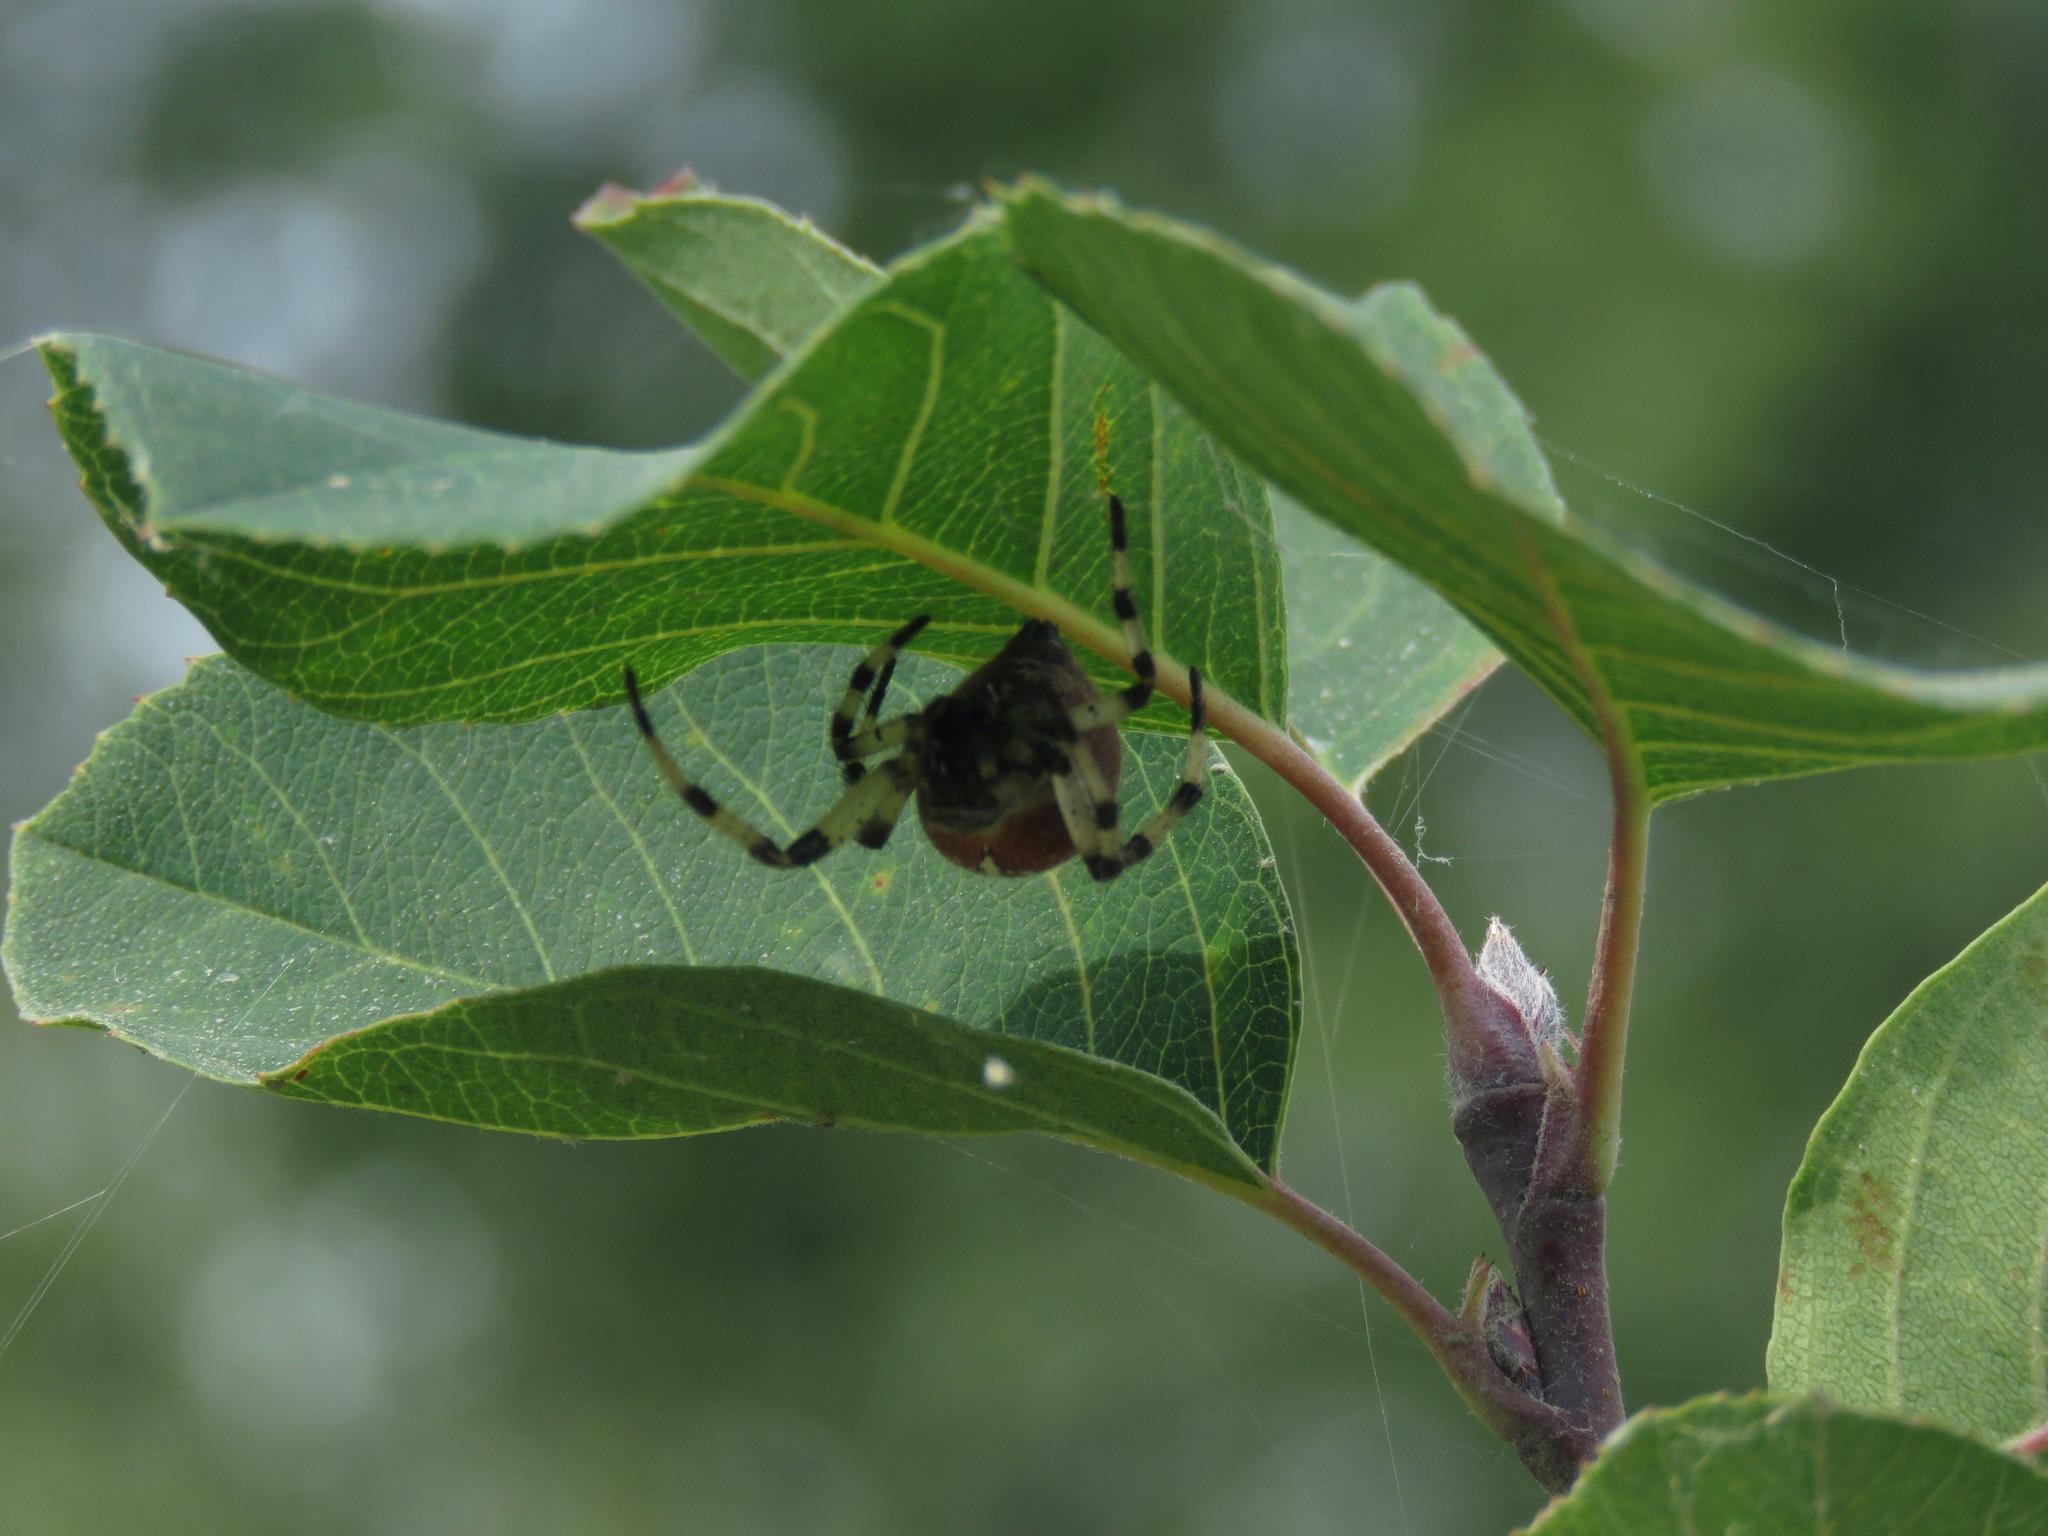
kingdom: Animalia
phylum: Arthropoda
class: Arachnida
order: Araneae
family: Araneidae
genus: Araneus
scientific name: Araneus trifolium
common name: Shamrock orbweaver
